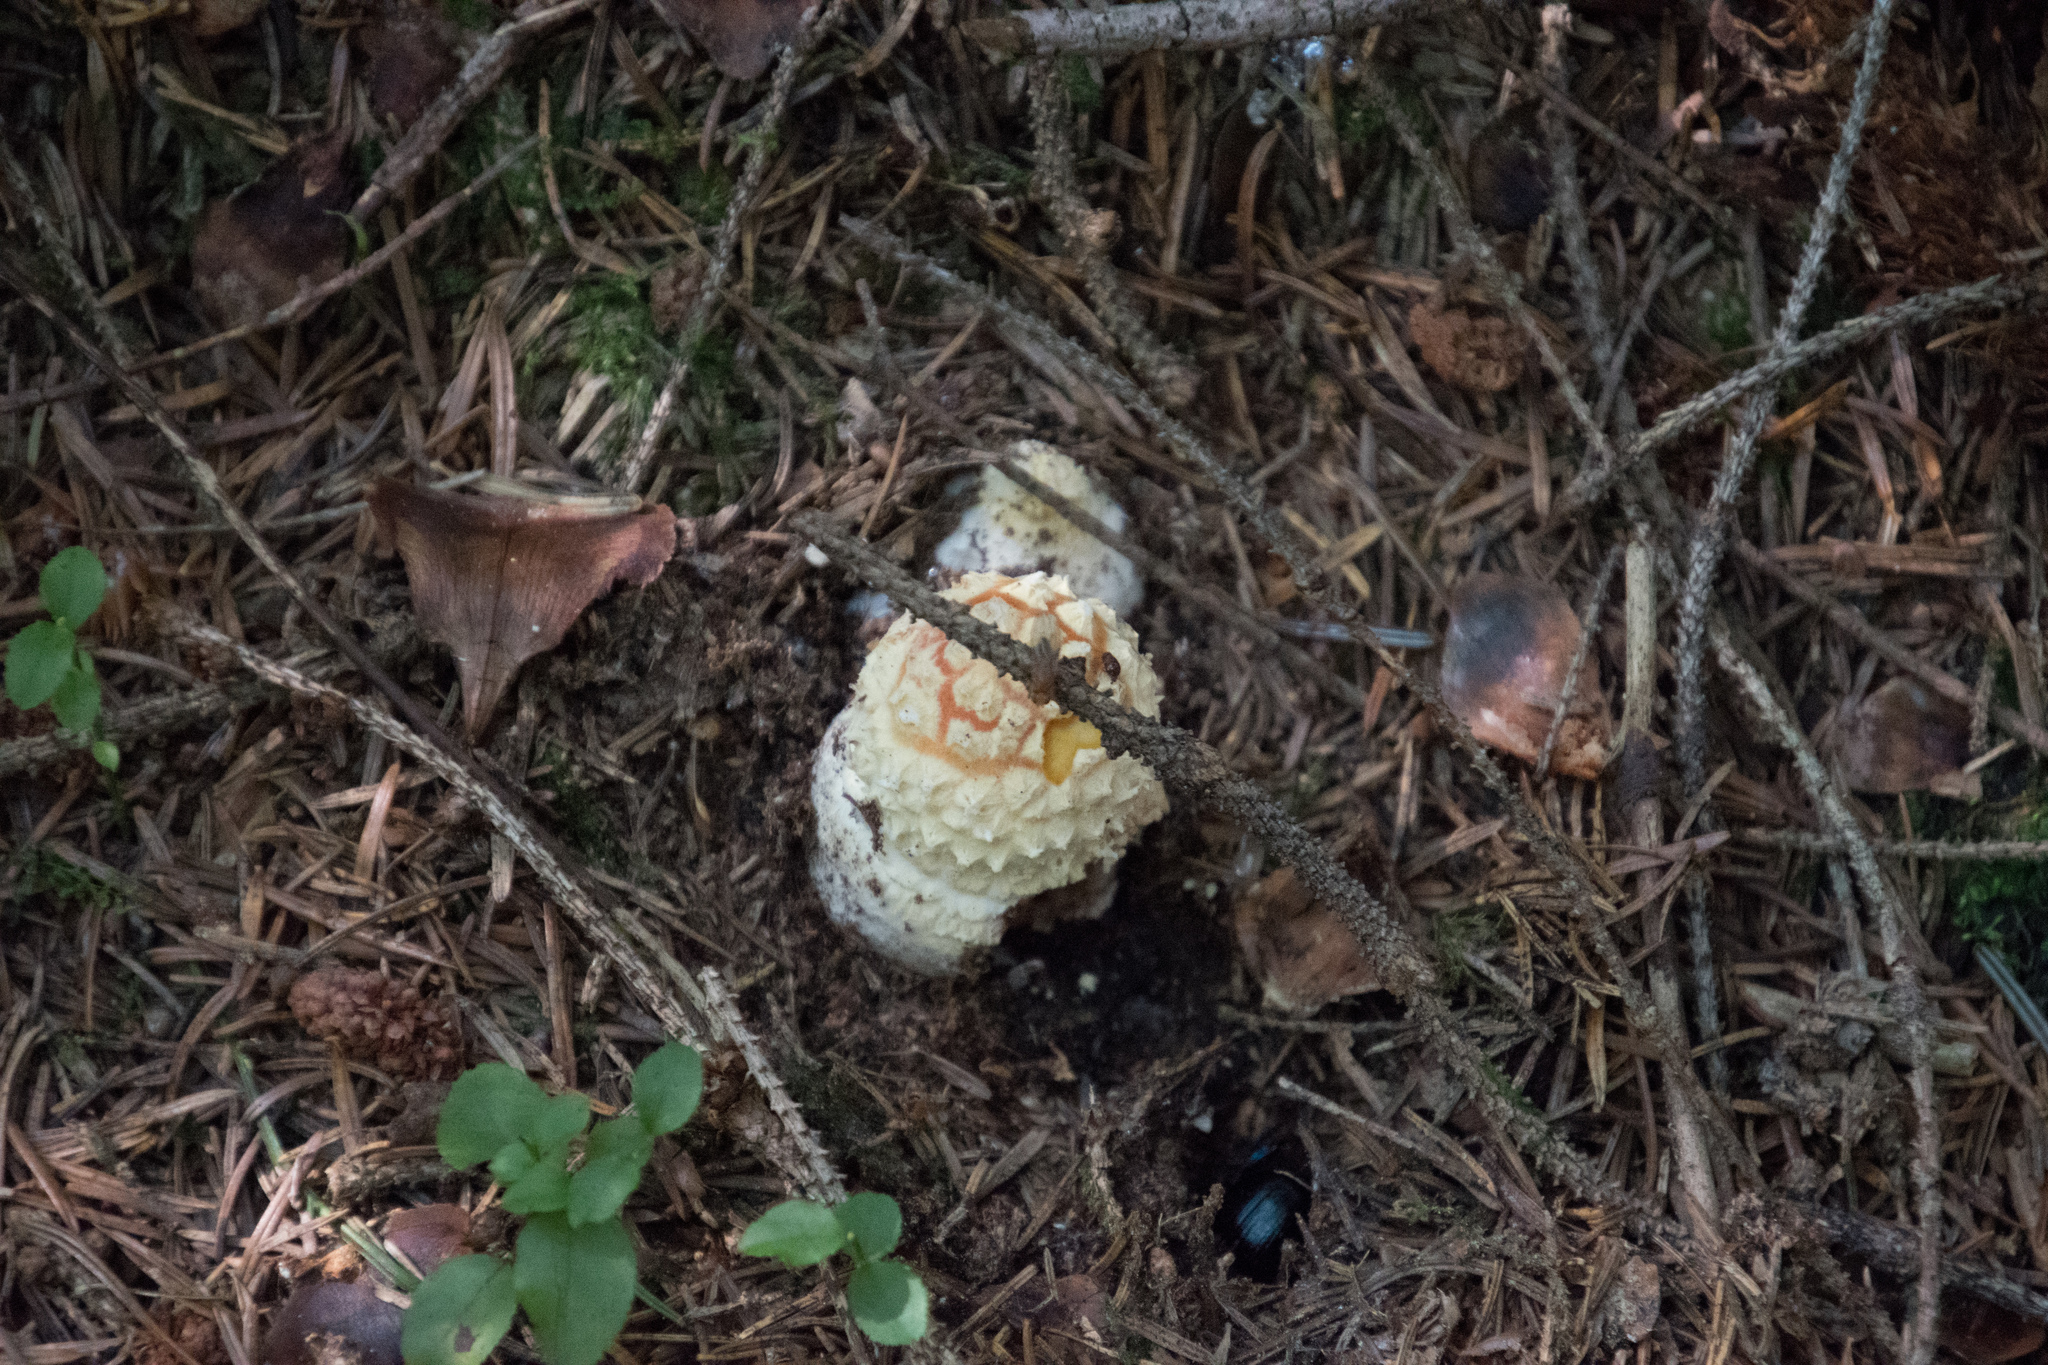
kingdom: Fungi
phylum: Basidiomycota
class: Agaricomycetes
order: Agaricales
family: Amanitaceae
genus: Amanita
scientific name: Amanita muscaria
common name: Fly agaric
